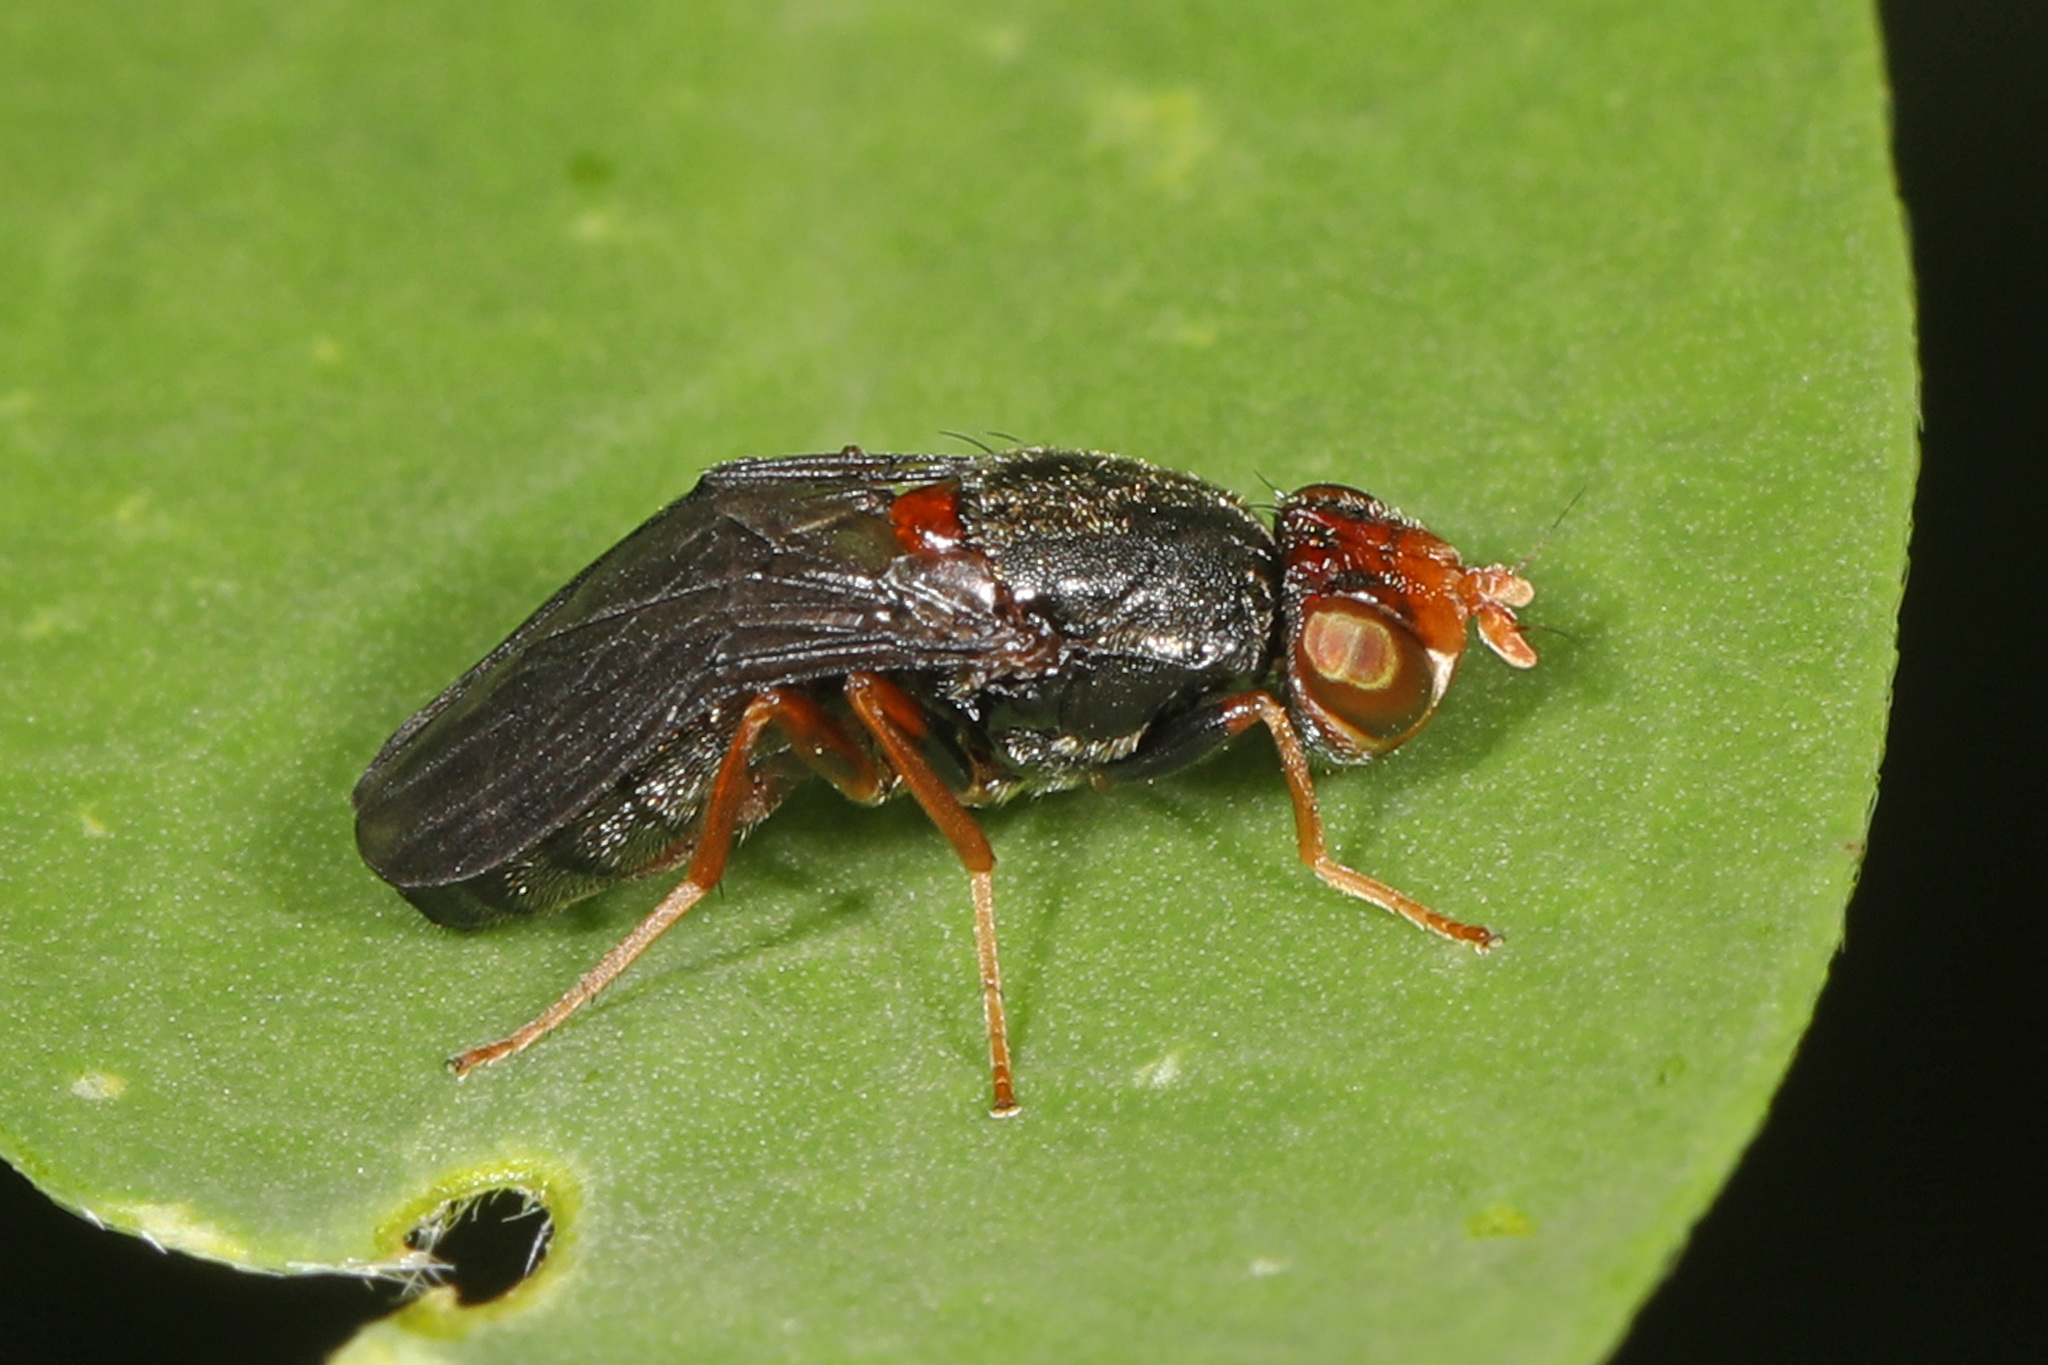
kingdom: Animalia
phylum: Arthropoda
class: Insecta
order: Diptera
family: Psilidae
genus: Chyliza
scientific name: Chyliza leguminicola
